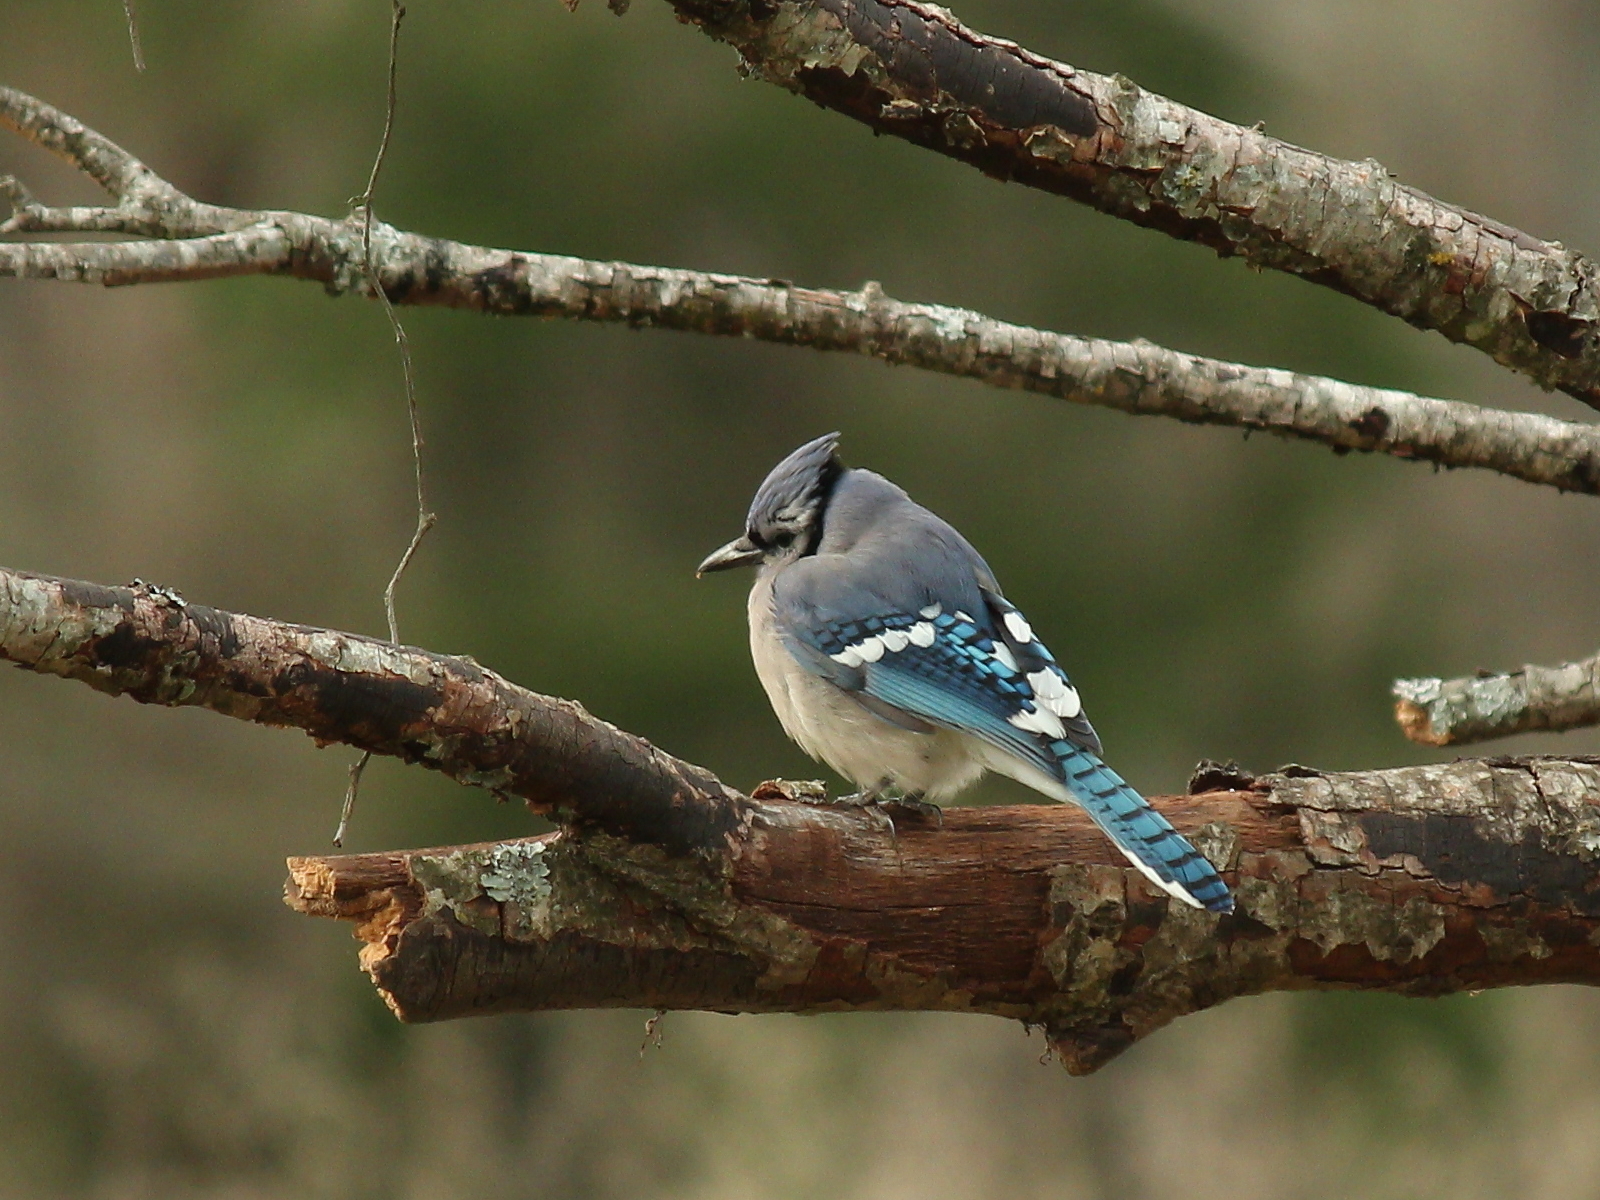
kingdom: Animalia
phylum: Chordata
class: Aves
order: Passeriformes
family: Corvidae
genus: Cyanocitta
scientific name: Cyanocitta cristata
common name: Blue jay
